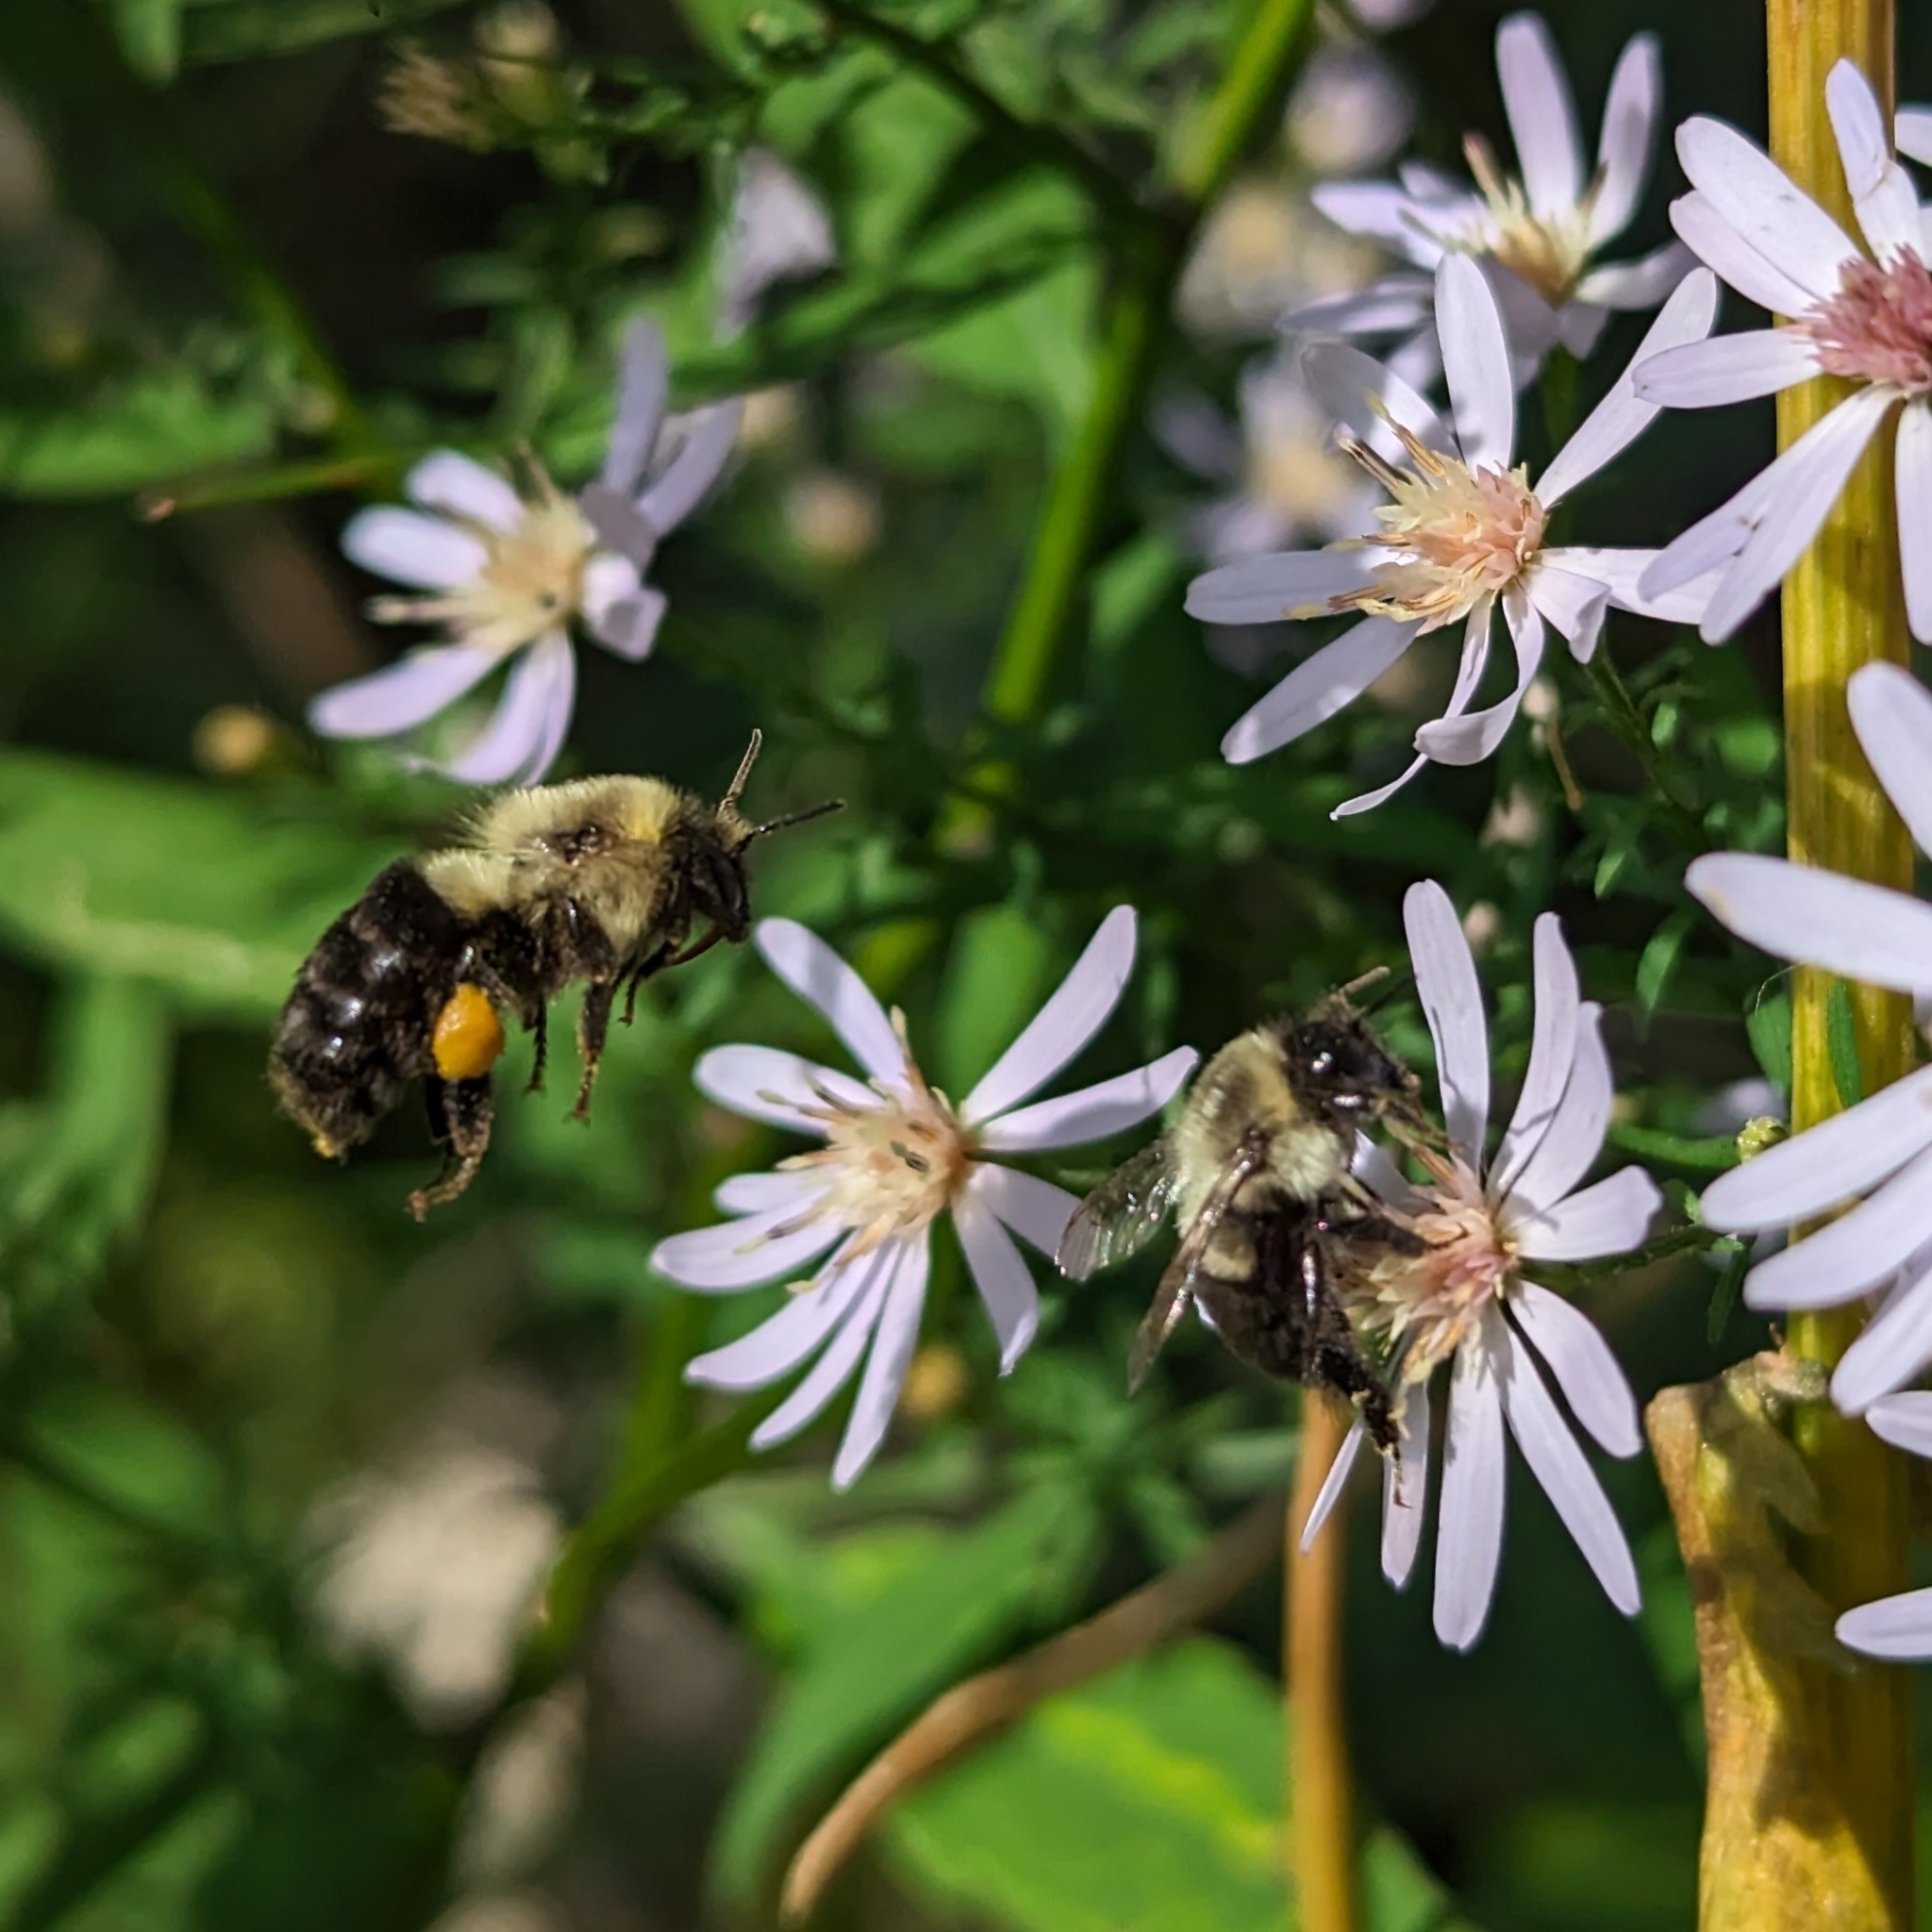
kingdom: Animalia
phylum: Arthropoda
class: Insecta
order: Hymenoptera
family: Apidae
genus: Bombus
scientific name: Bombus impatiens
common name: Common eastern bumble bee
